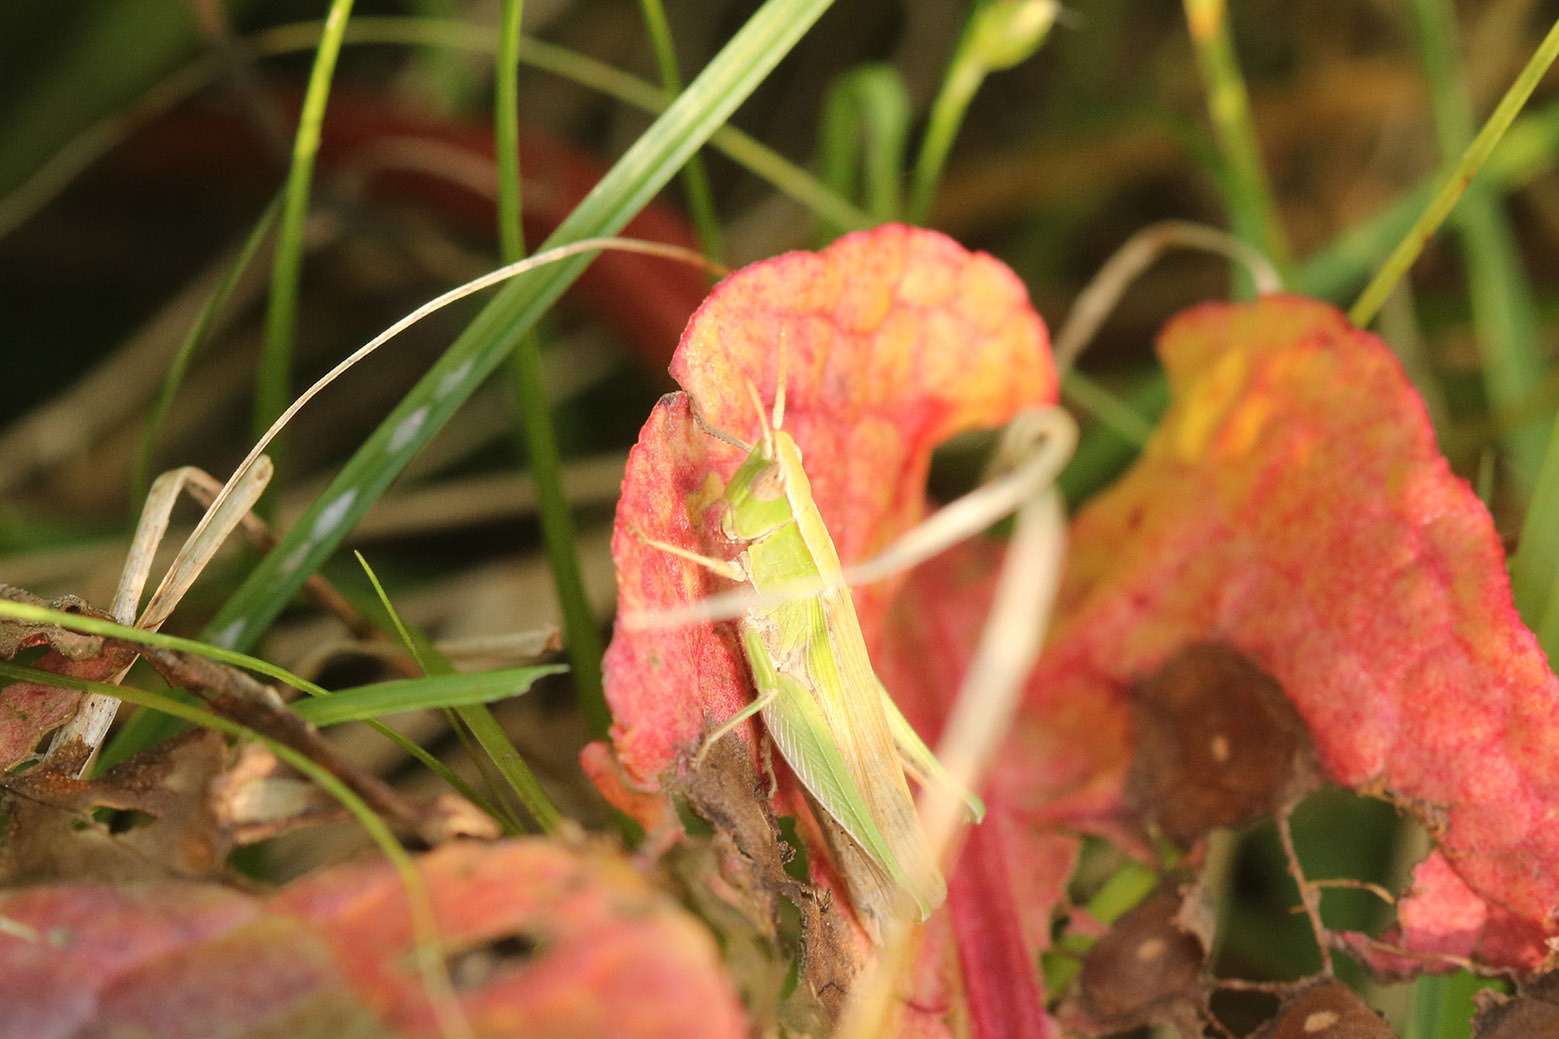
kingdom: Animalia
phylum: Arthropoda
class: Insecta
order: Orthoptera
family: Acrididae
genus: Laplatacris
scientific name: Laplatacris dispar
